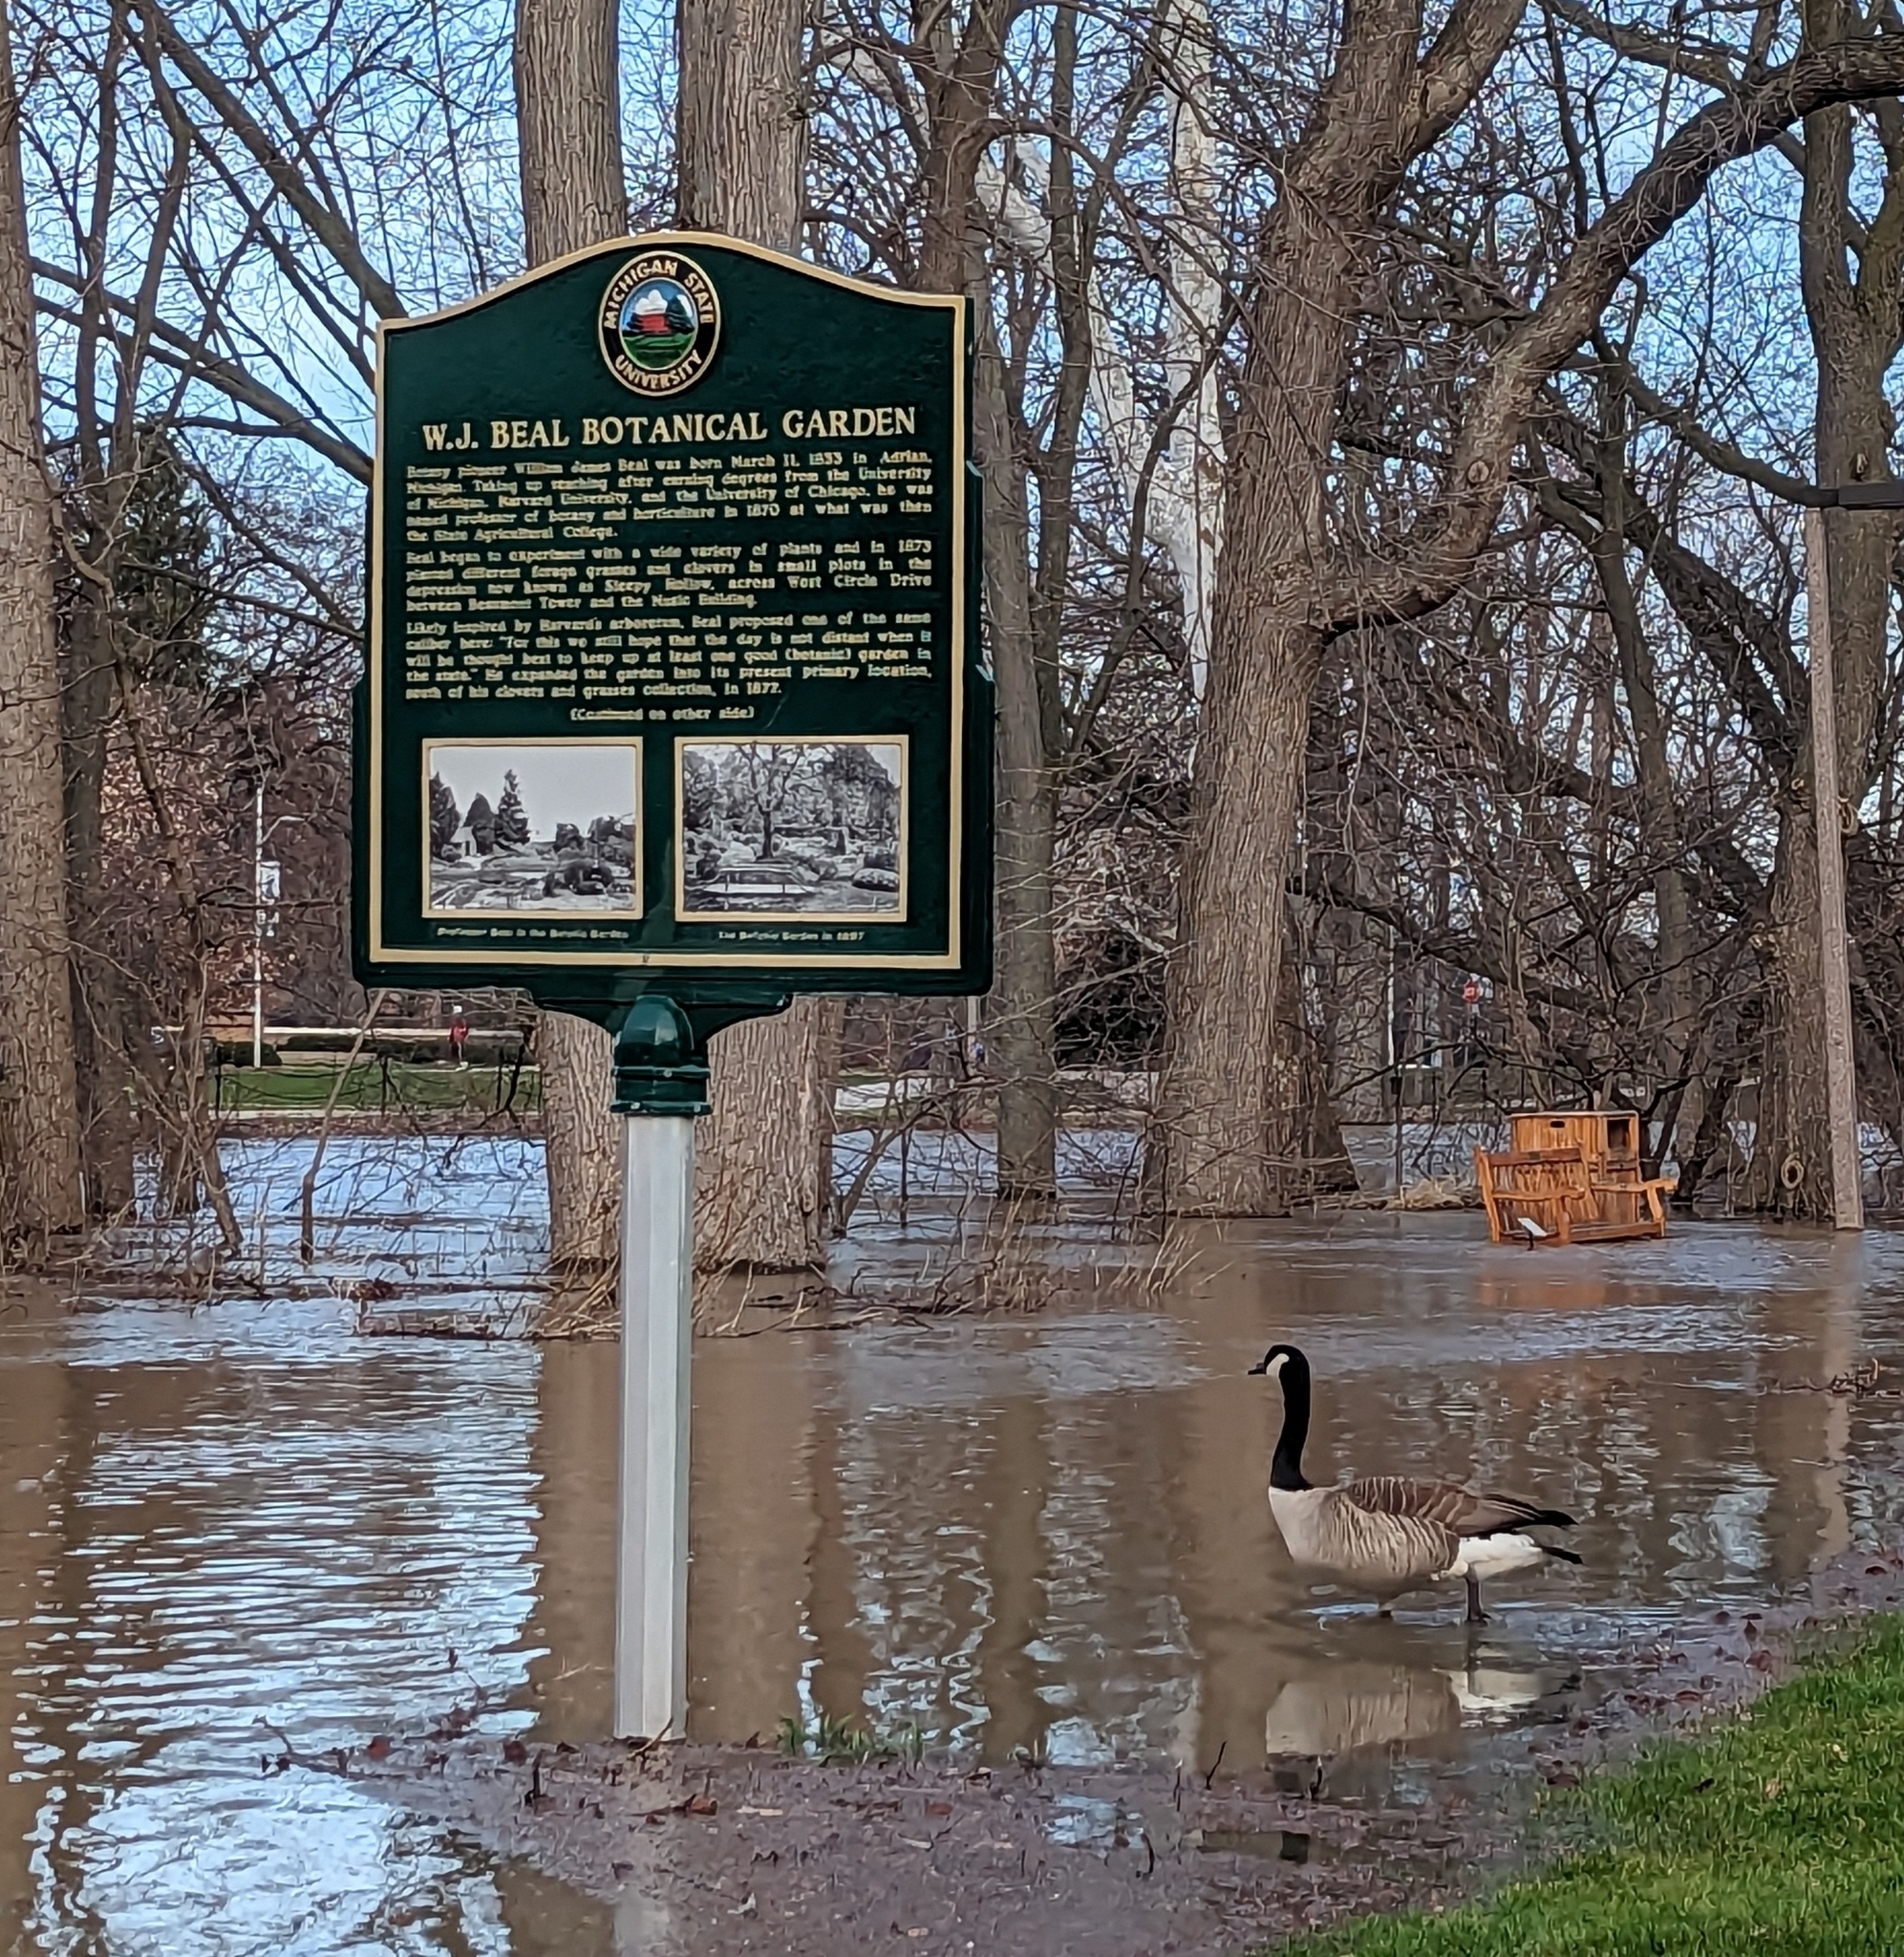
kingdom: Animalia
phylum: Chordata
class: Aves
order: Anseriformes
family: Anatidae
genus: Branta
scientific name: Branta canadensis
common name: Canada goose
